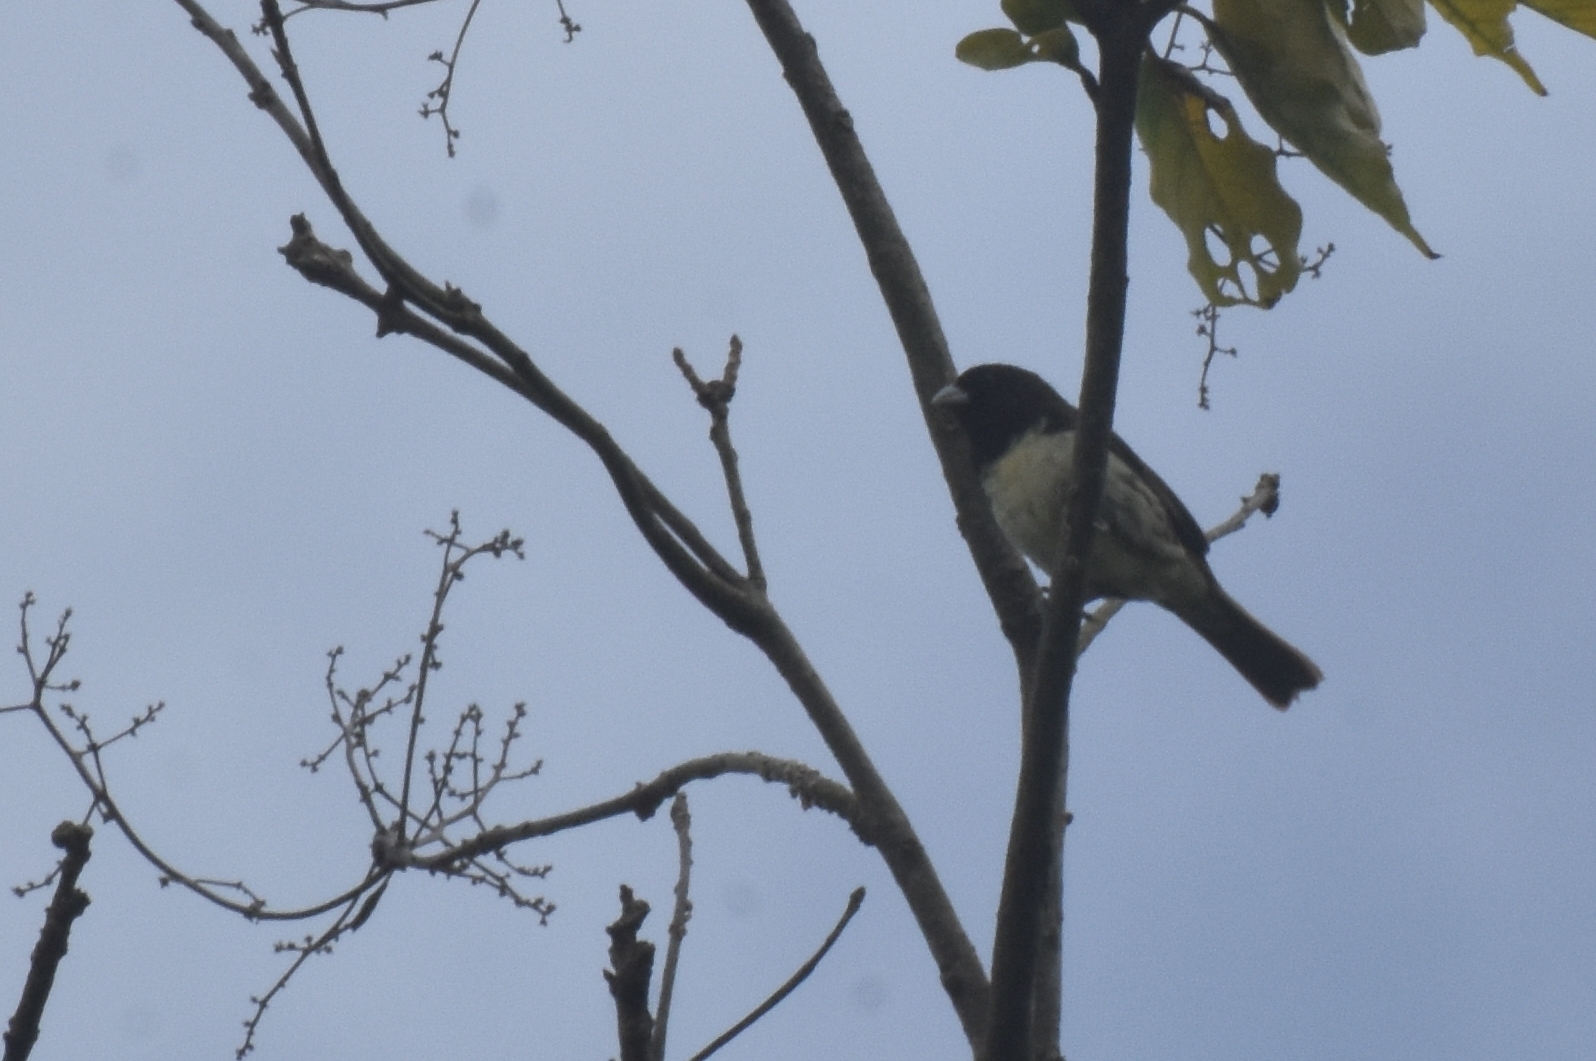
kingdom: Animalia
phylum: Chordata
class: Aves
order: Passeriformes
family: Thraupidae
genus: Sporophila
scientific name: Sporophila nigricollis
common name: Yellow-bellied seedeater
